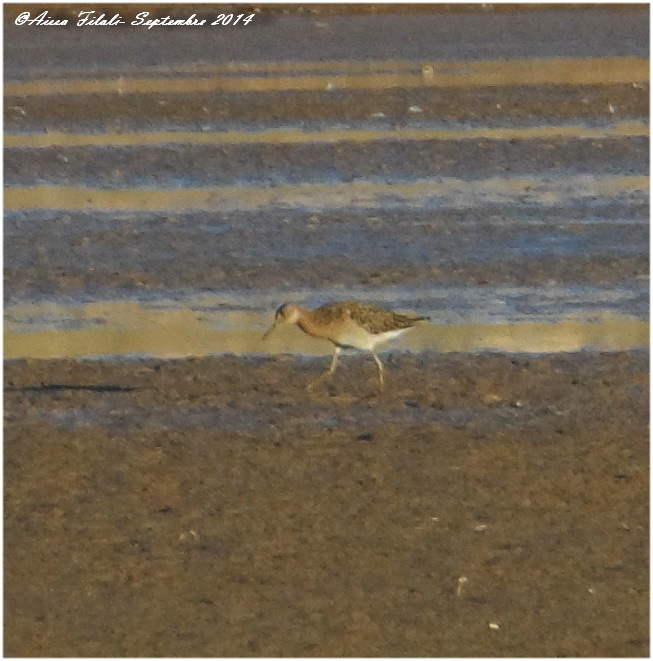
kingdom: Animalia
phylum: Chordata
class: Aves
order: Charadriiformes
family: Scolopacidae
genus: Calidris
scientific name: Calidris pugnax
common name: Ruff
